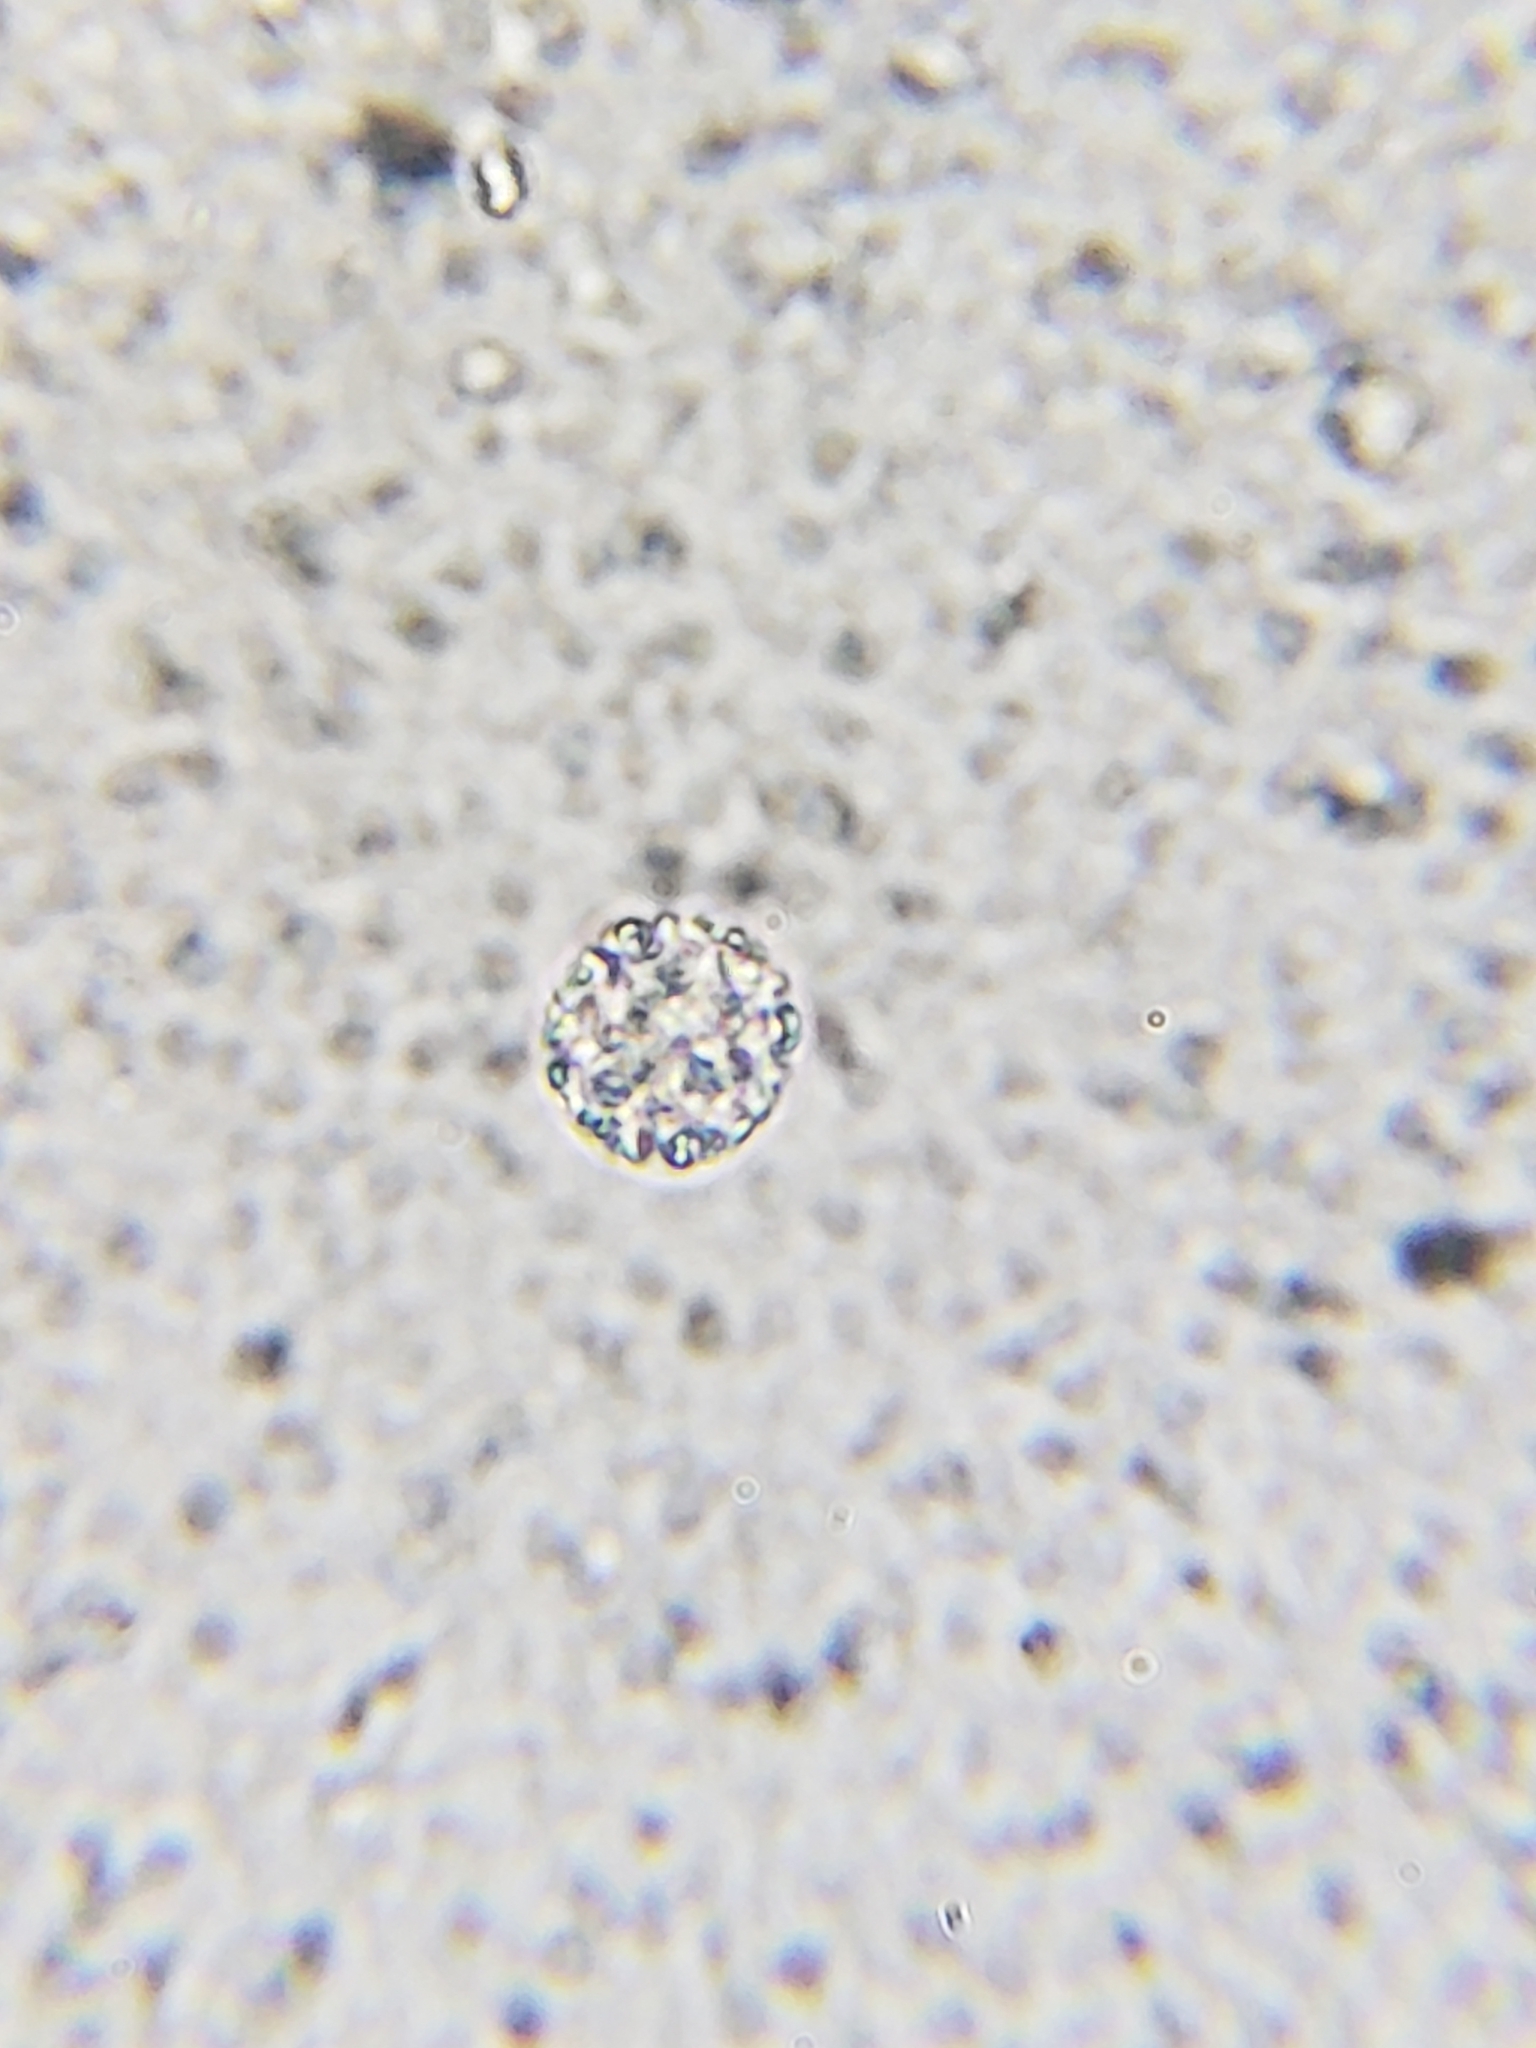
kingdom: Fungi
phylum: Ascomycota
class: Candelariomycetes
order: Candelariales
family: Candelariaceae
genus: Candelaria
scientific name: Candelaria concolor
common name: Candleflame lichen
